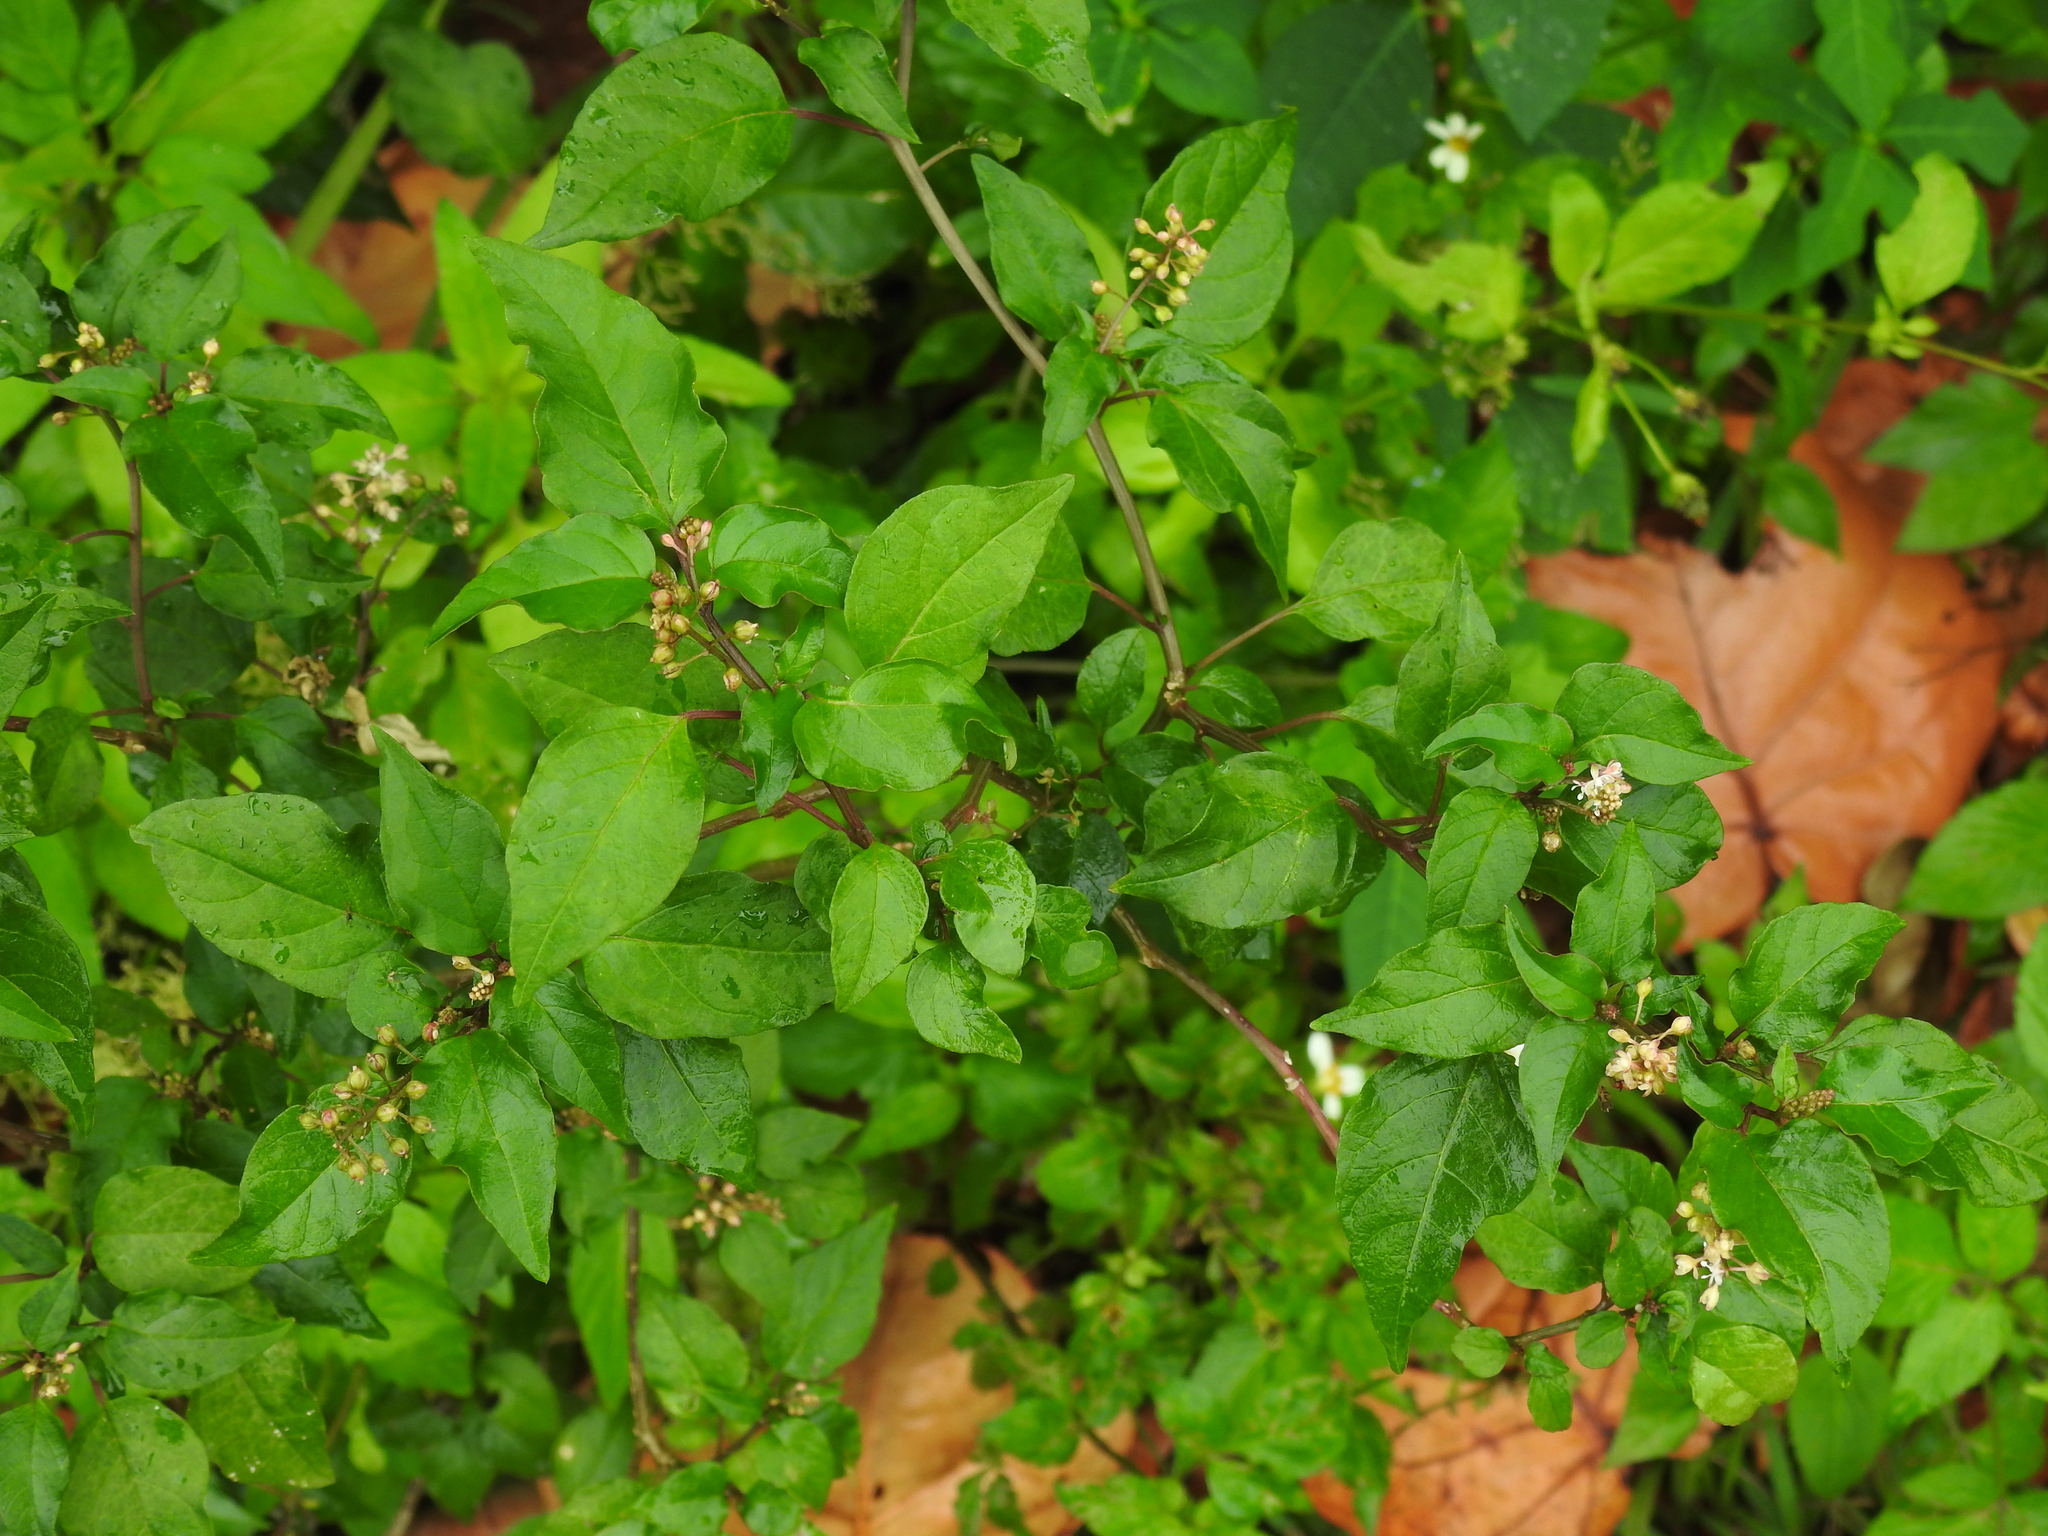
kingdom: Plantae
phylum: Tracheophyta
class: Magnoliopsida
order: Caryophyllales
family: Phytolaccaceae
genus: Rivina
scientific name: Rivina humilis
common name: Rougeplant
